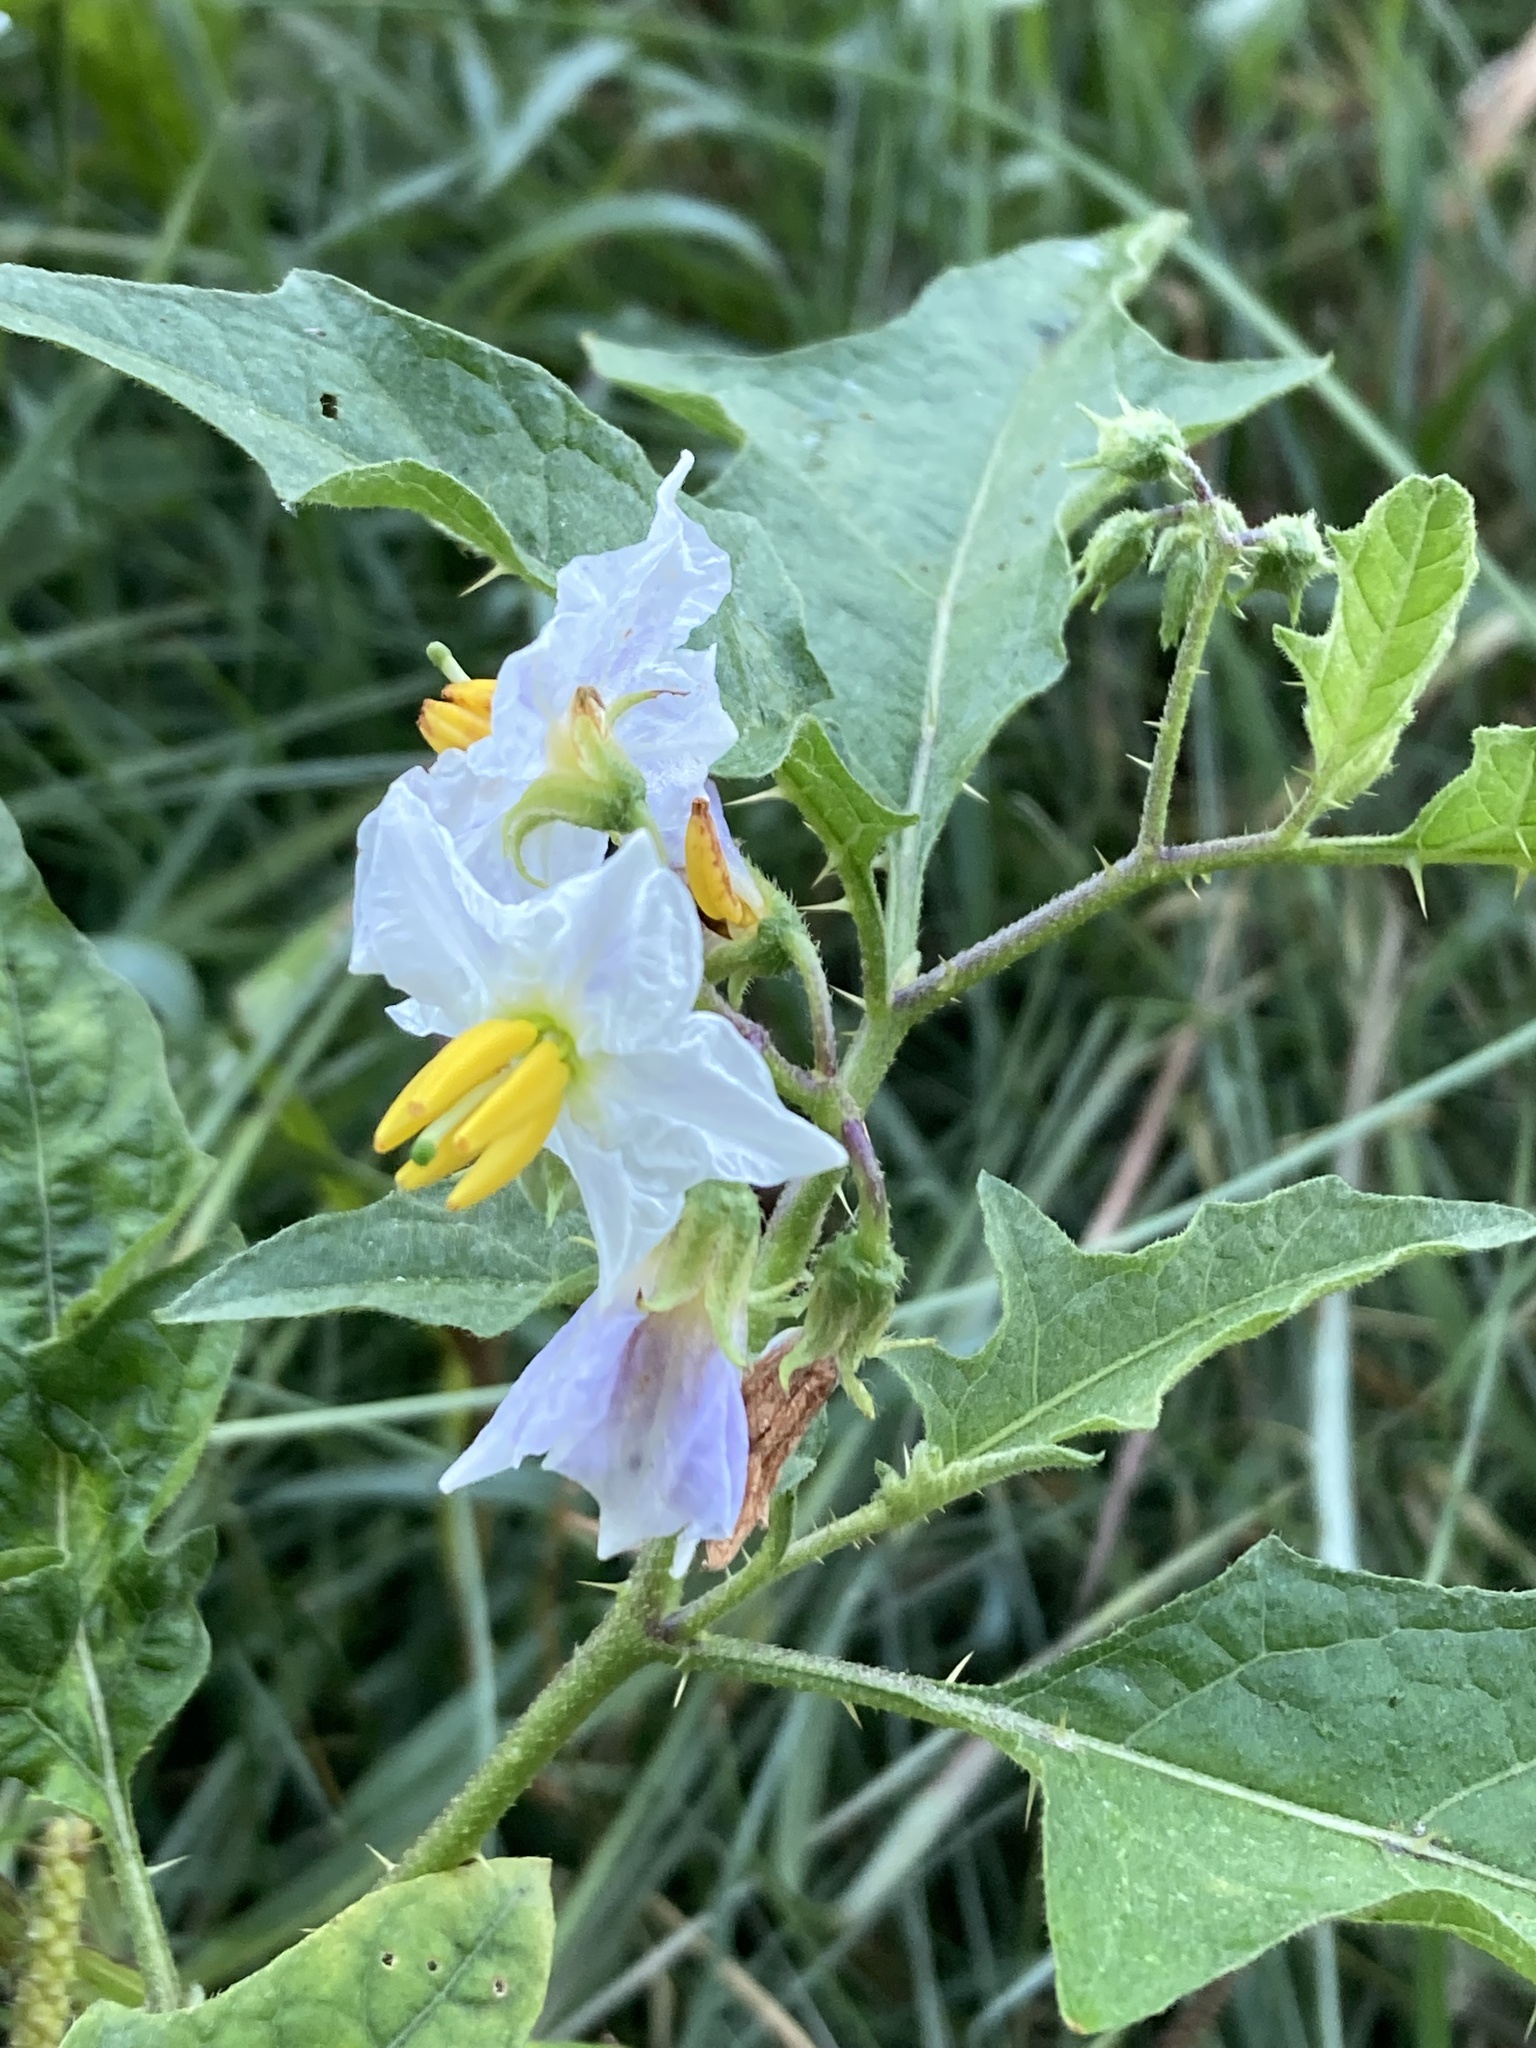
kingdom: Plantae
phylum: Tracheophyta
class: Magnoliopsida
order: Solanales
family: Solanaceae
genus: Solanum
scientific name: Solanum carolinense
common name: Horse-nettle
